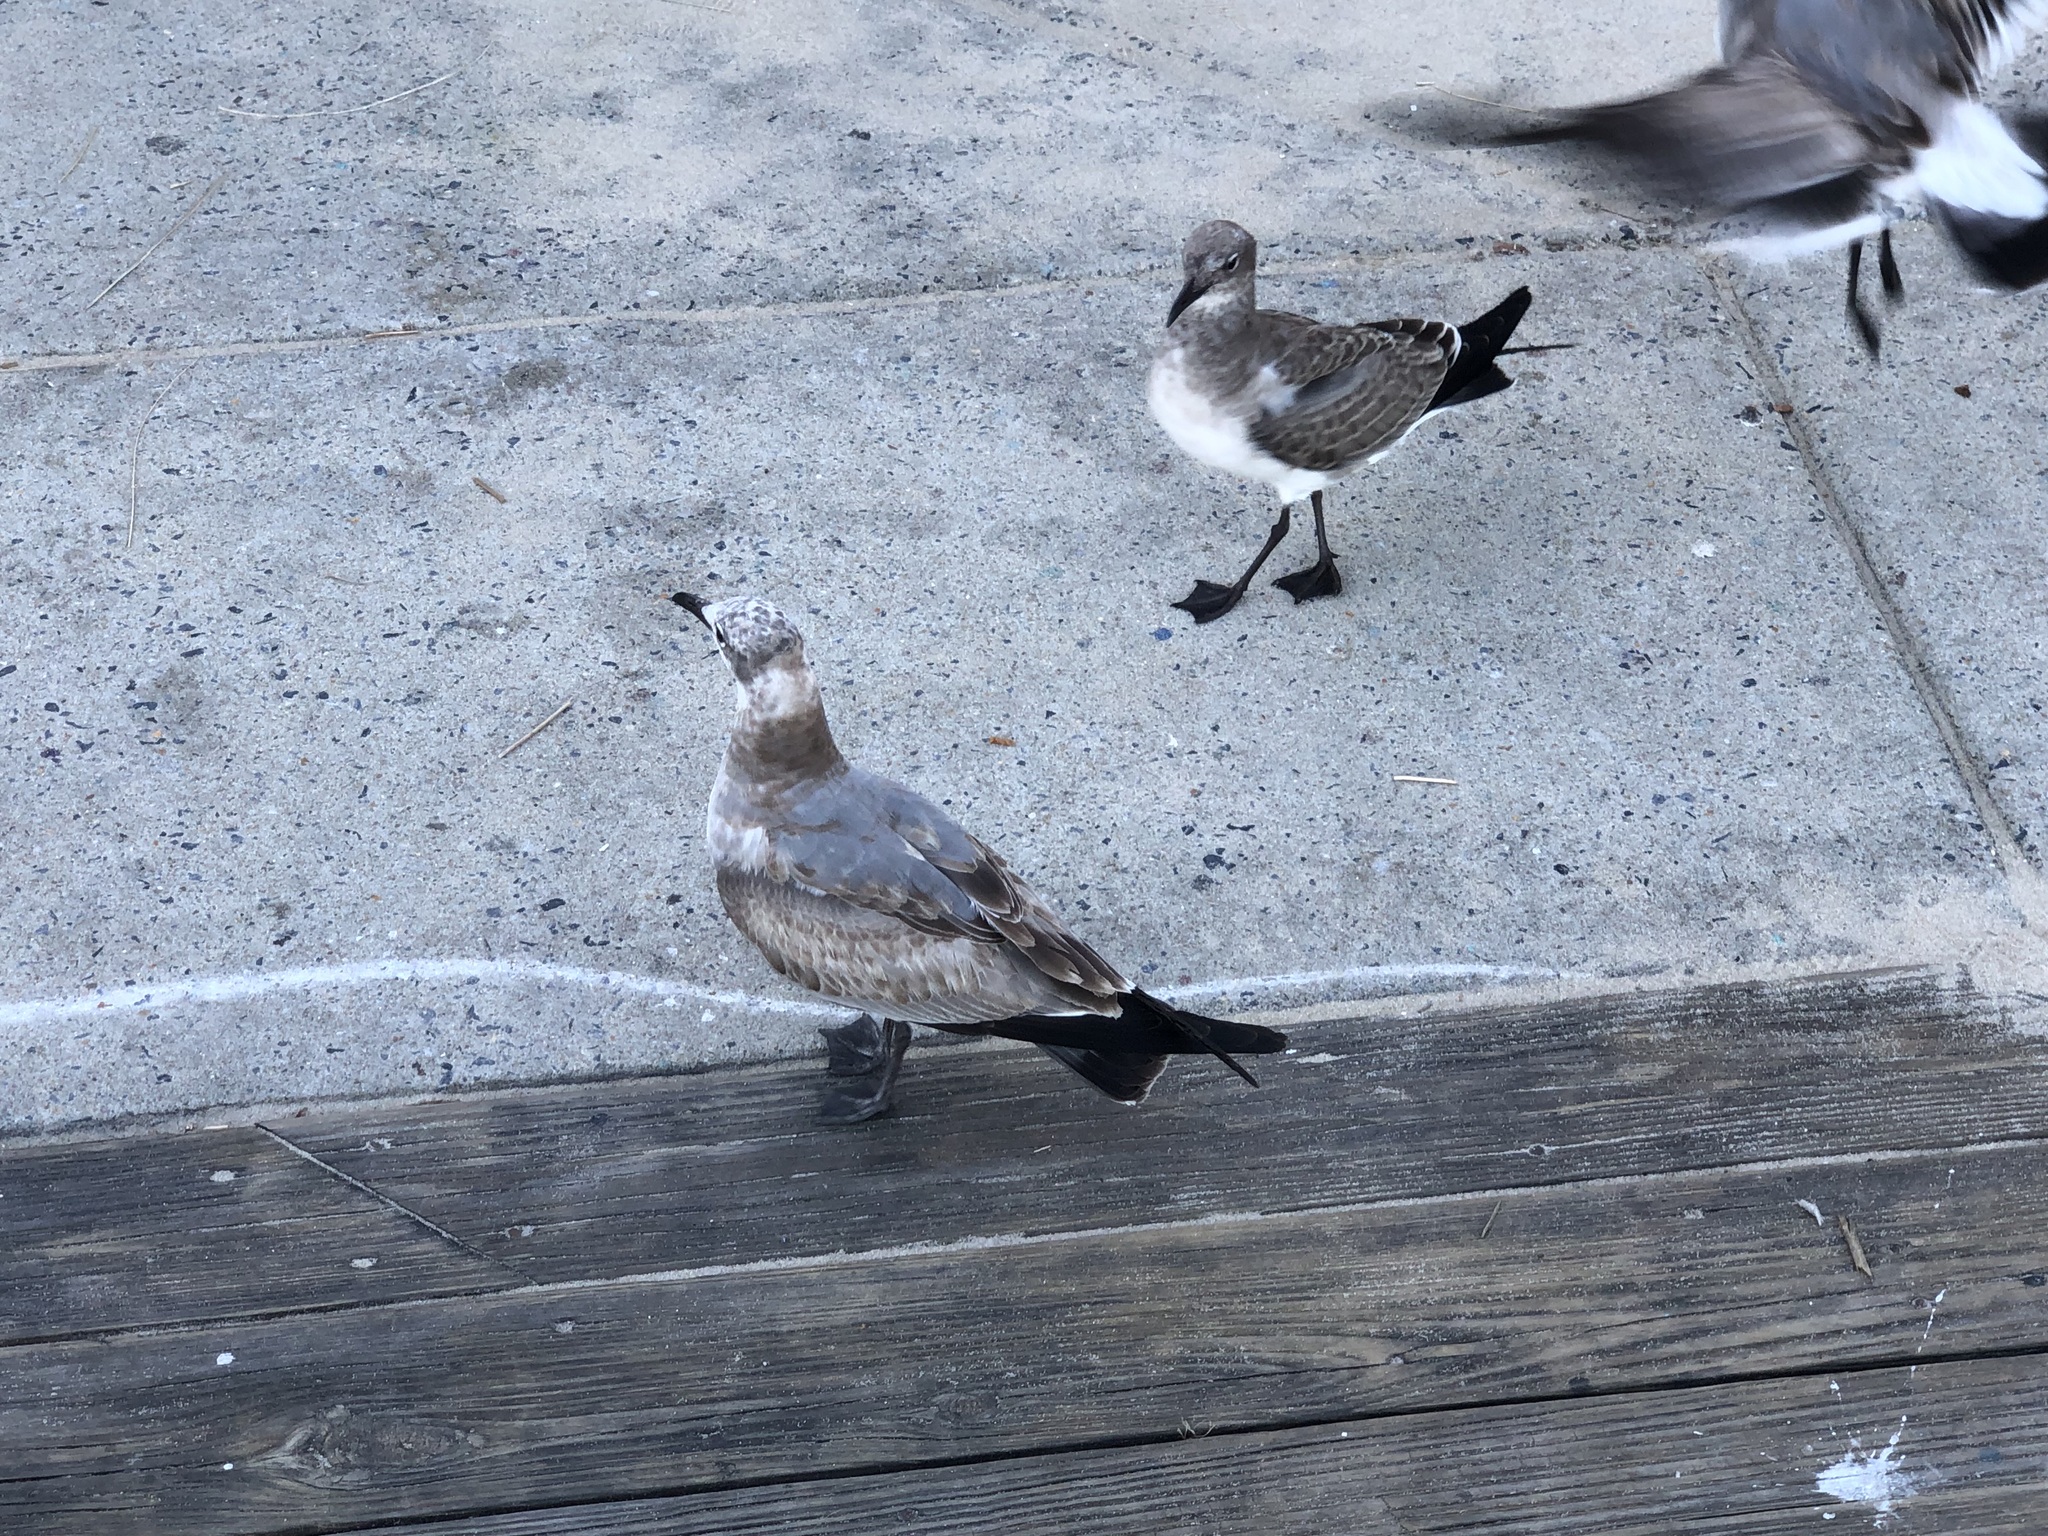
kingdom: Animalia
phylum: Chordata
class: Aves
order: Charadriiformes
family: Laridae
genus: Leucophaeus
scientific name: Leucophaeus atricilla
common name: Laughing gull
